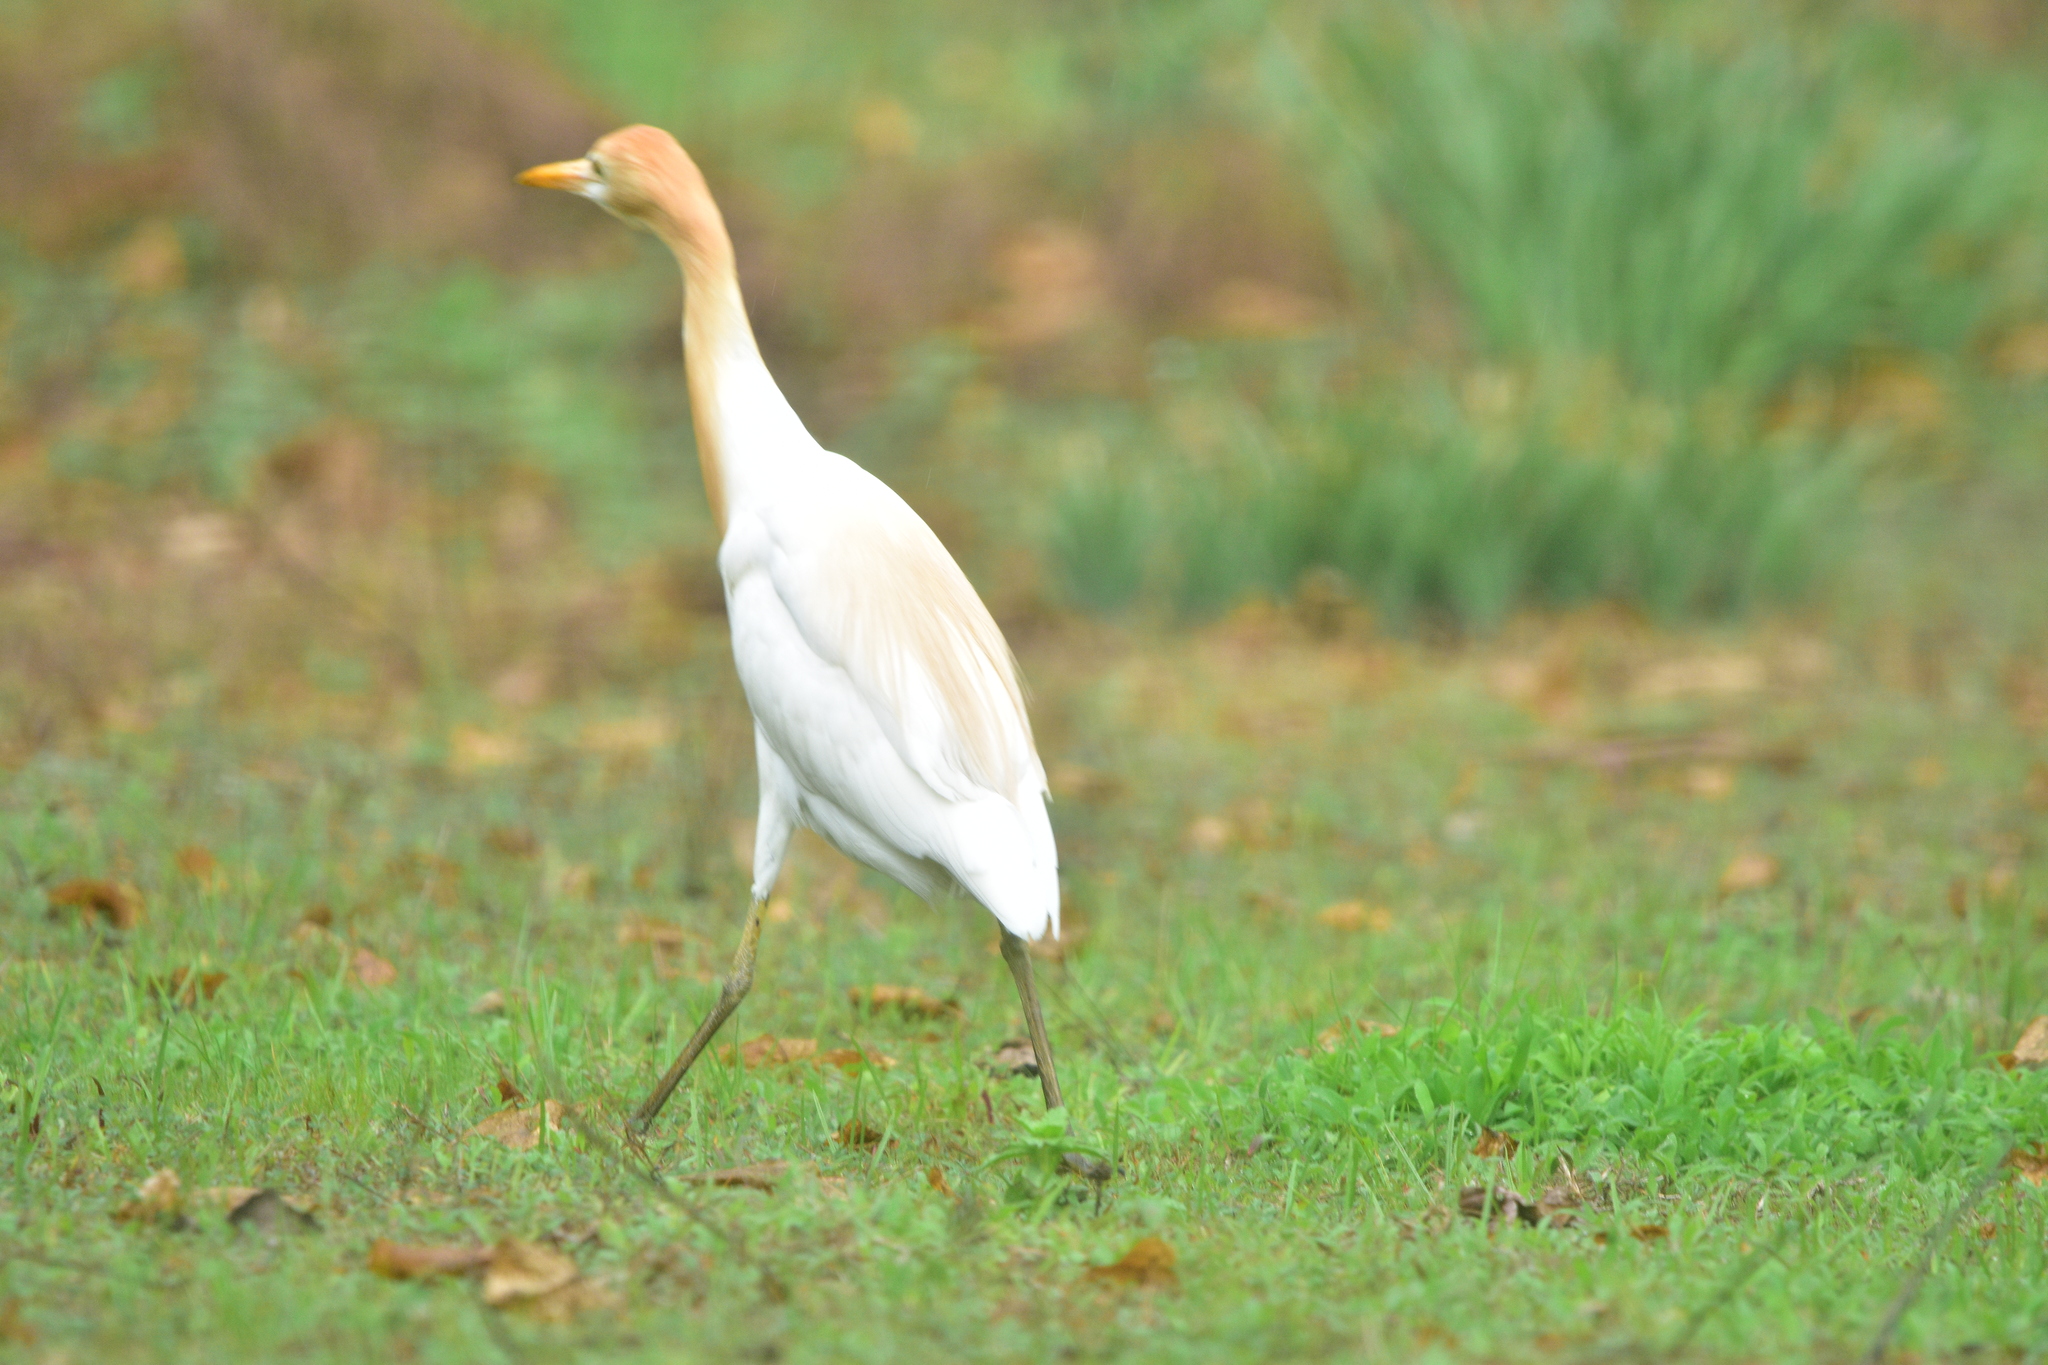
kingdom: Animalia
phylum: Chordata
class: Aves
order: Pelecaniformes
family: Ardeidae
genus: Bubulcus
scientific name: Bubulcus coromandus
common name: Eastern cattle egret
